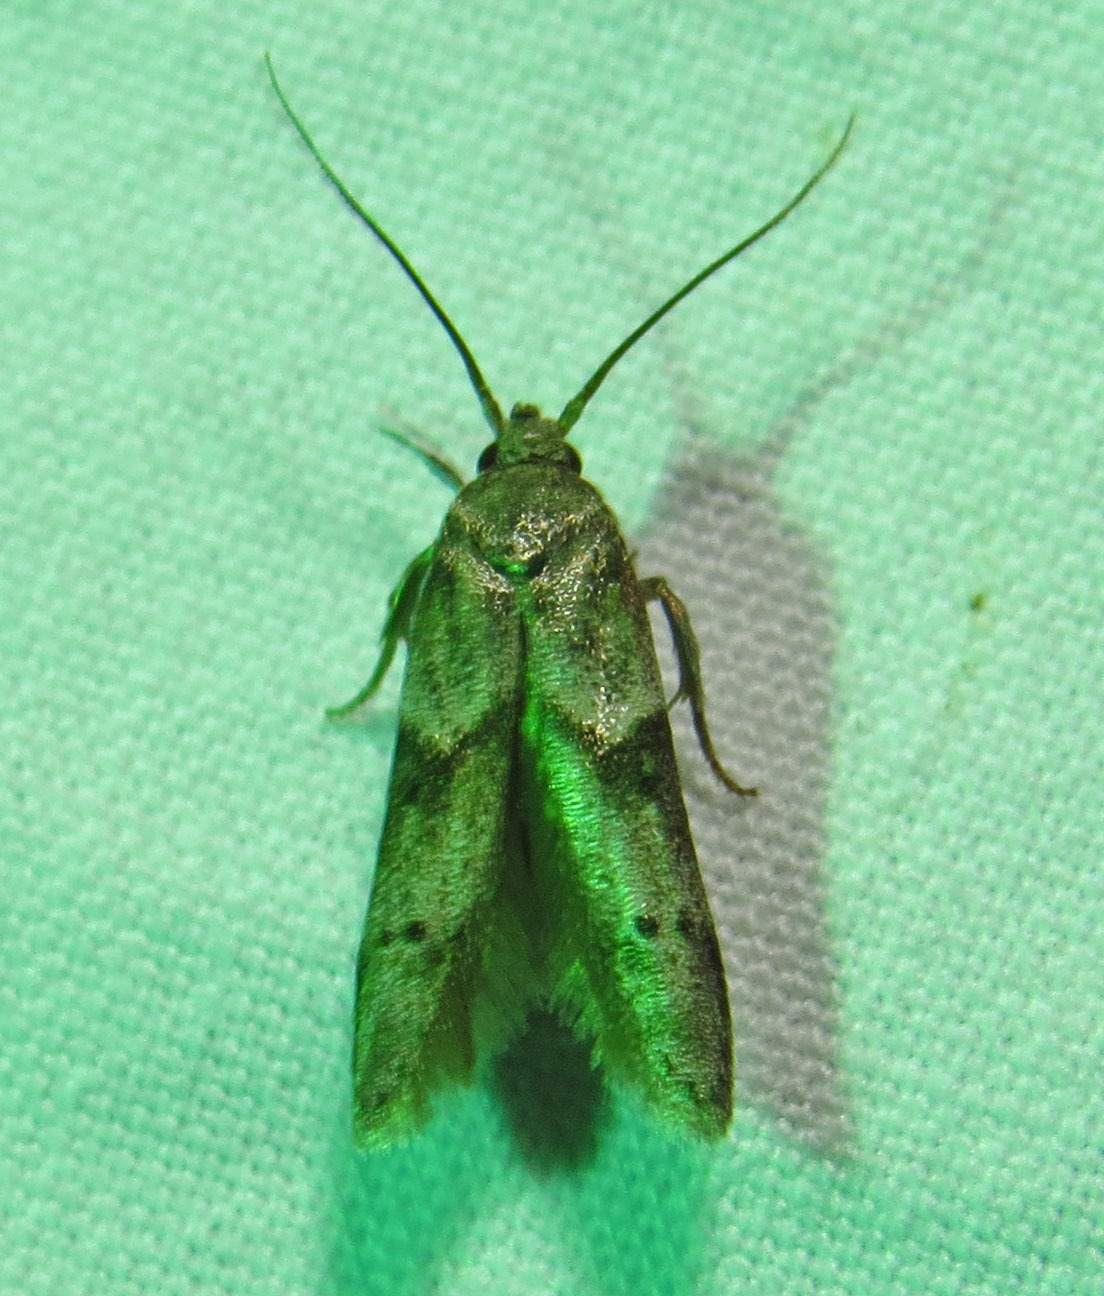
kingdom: Animalia
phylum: Arthropoda
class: Insecta
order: Lepidoptera
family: Blastobasidae
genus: Blastobasis
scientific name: Blastobasis glandulella
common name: Acorn moth
